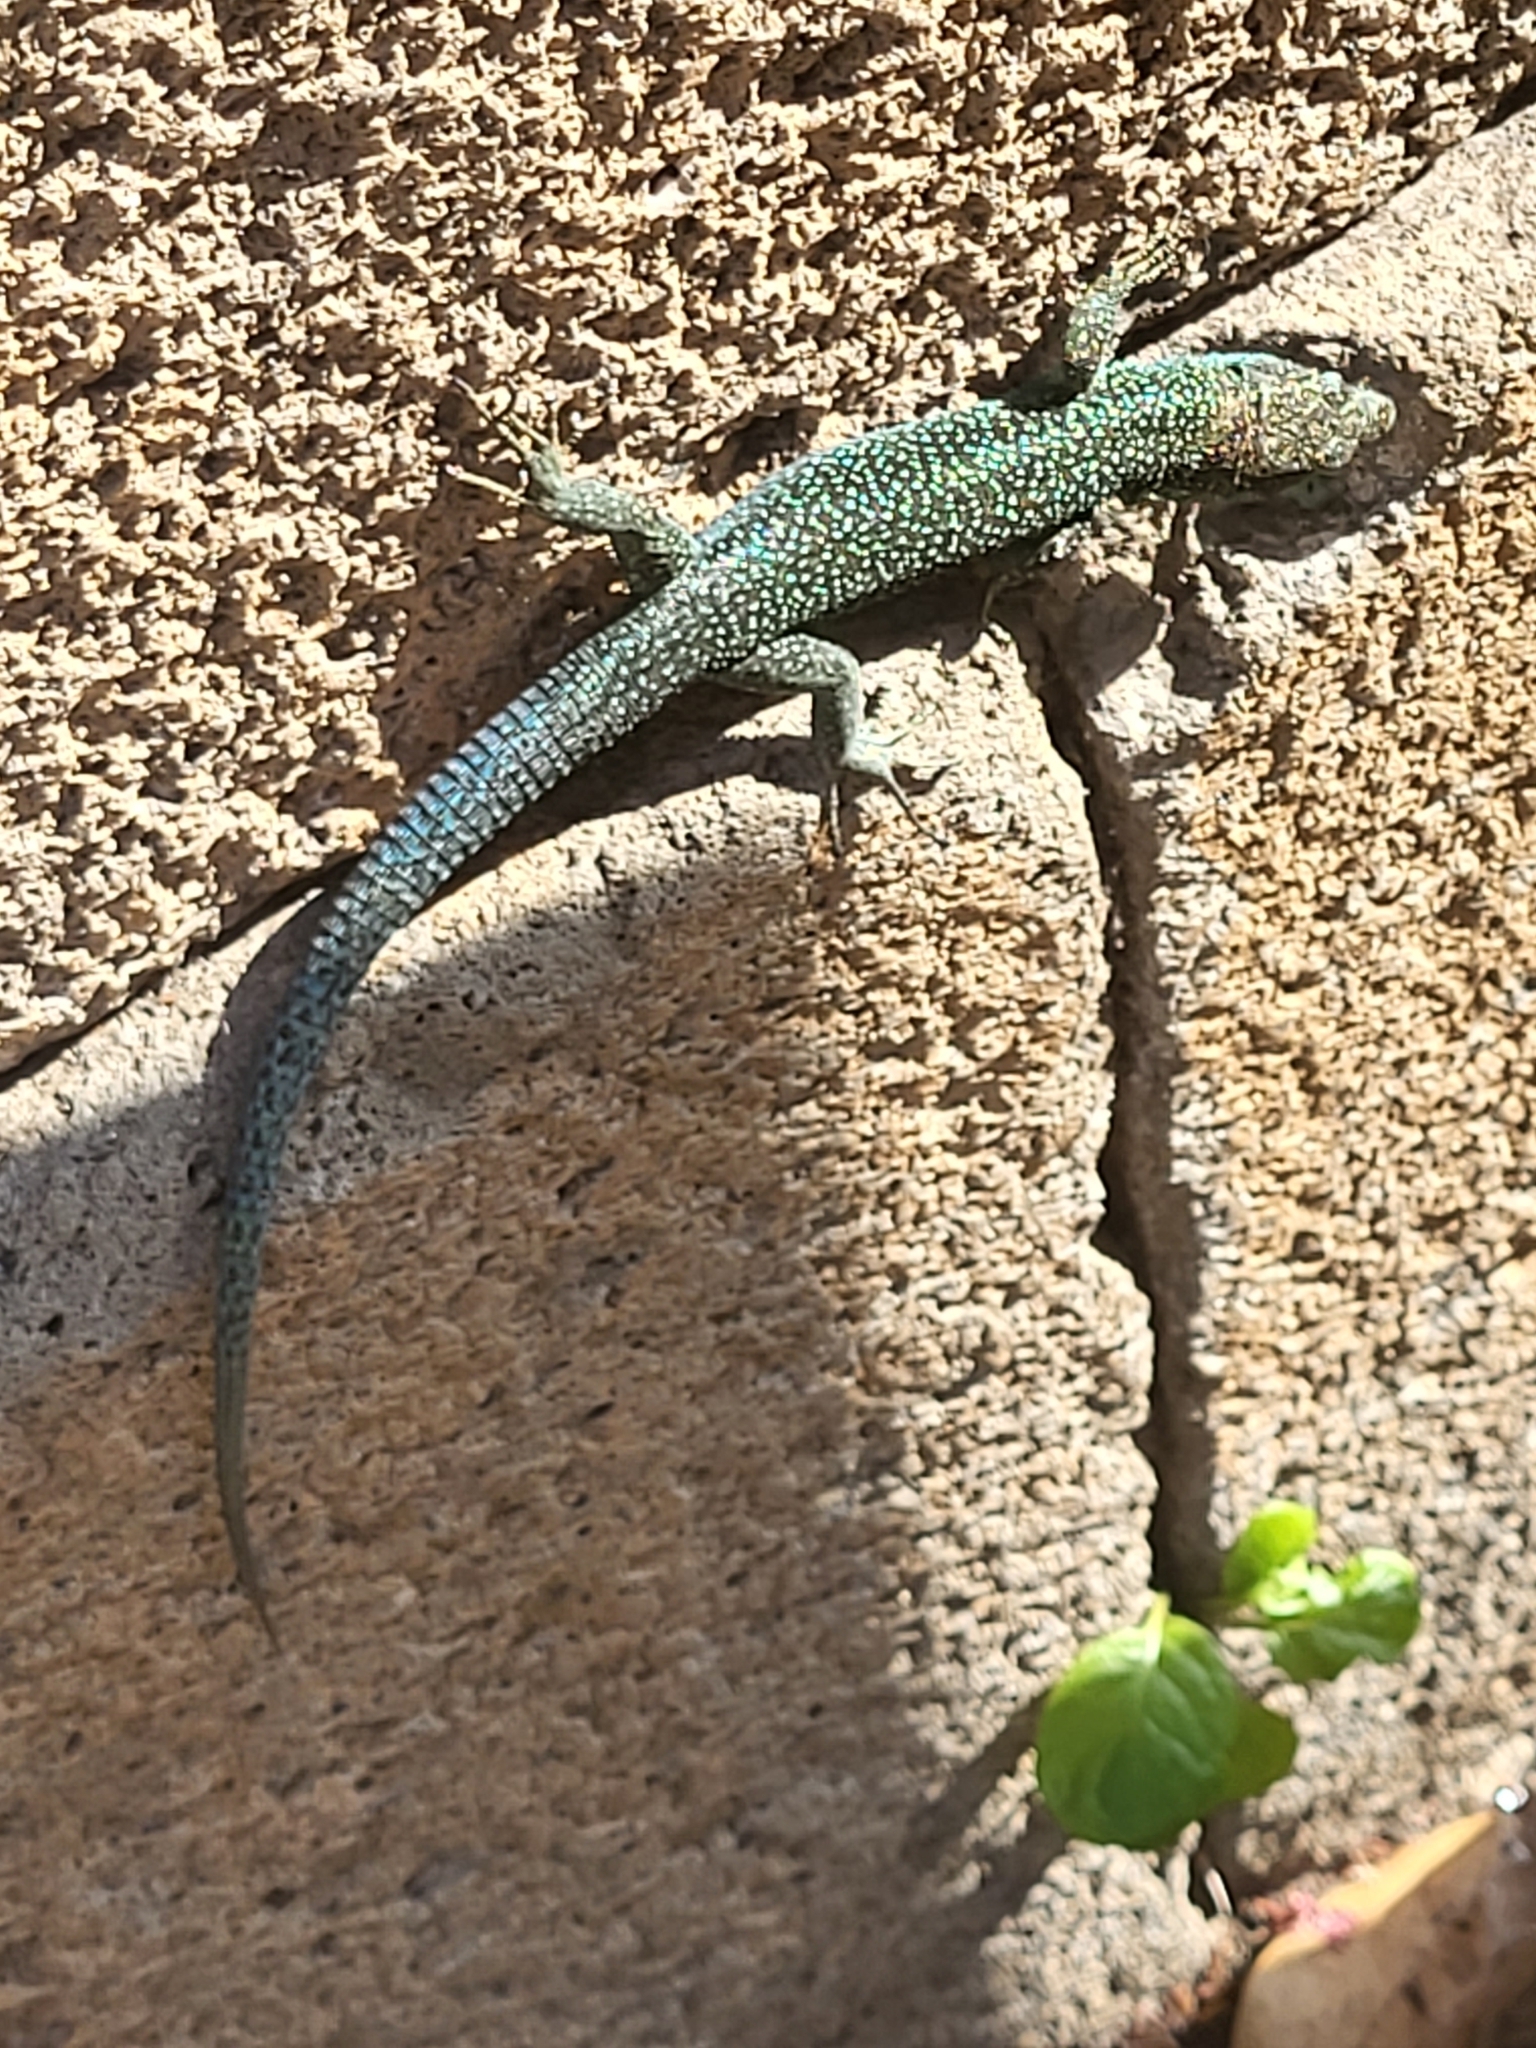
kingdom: Animalia
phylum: Chordata
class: Squamata
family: Lacertidae
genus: Teira
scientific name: Teira dugesii
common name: Madeira lizard
